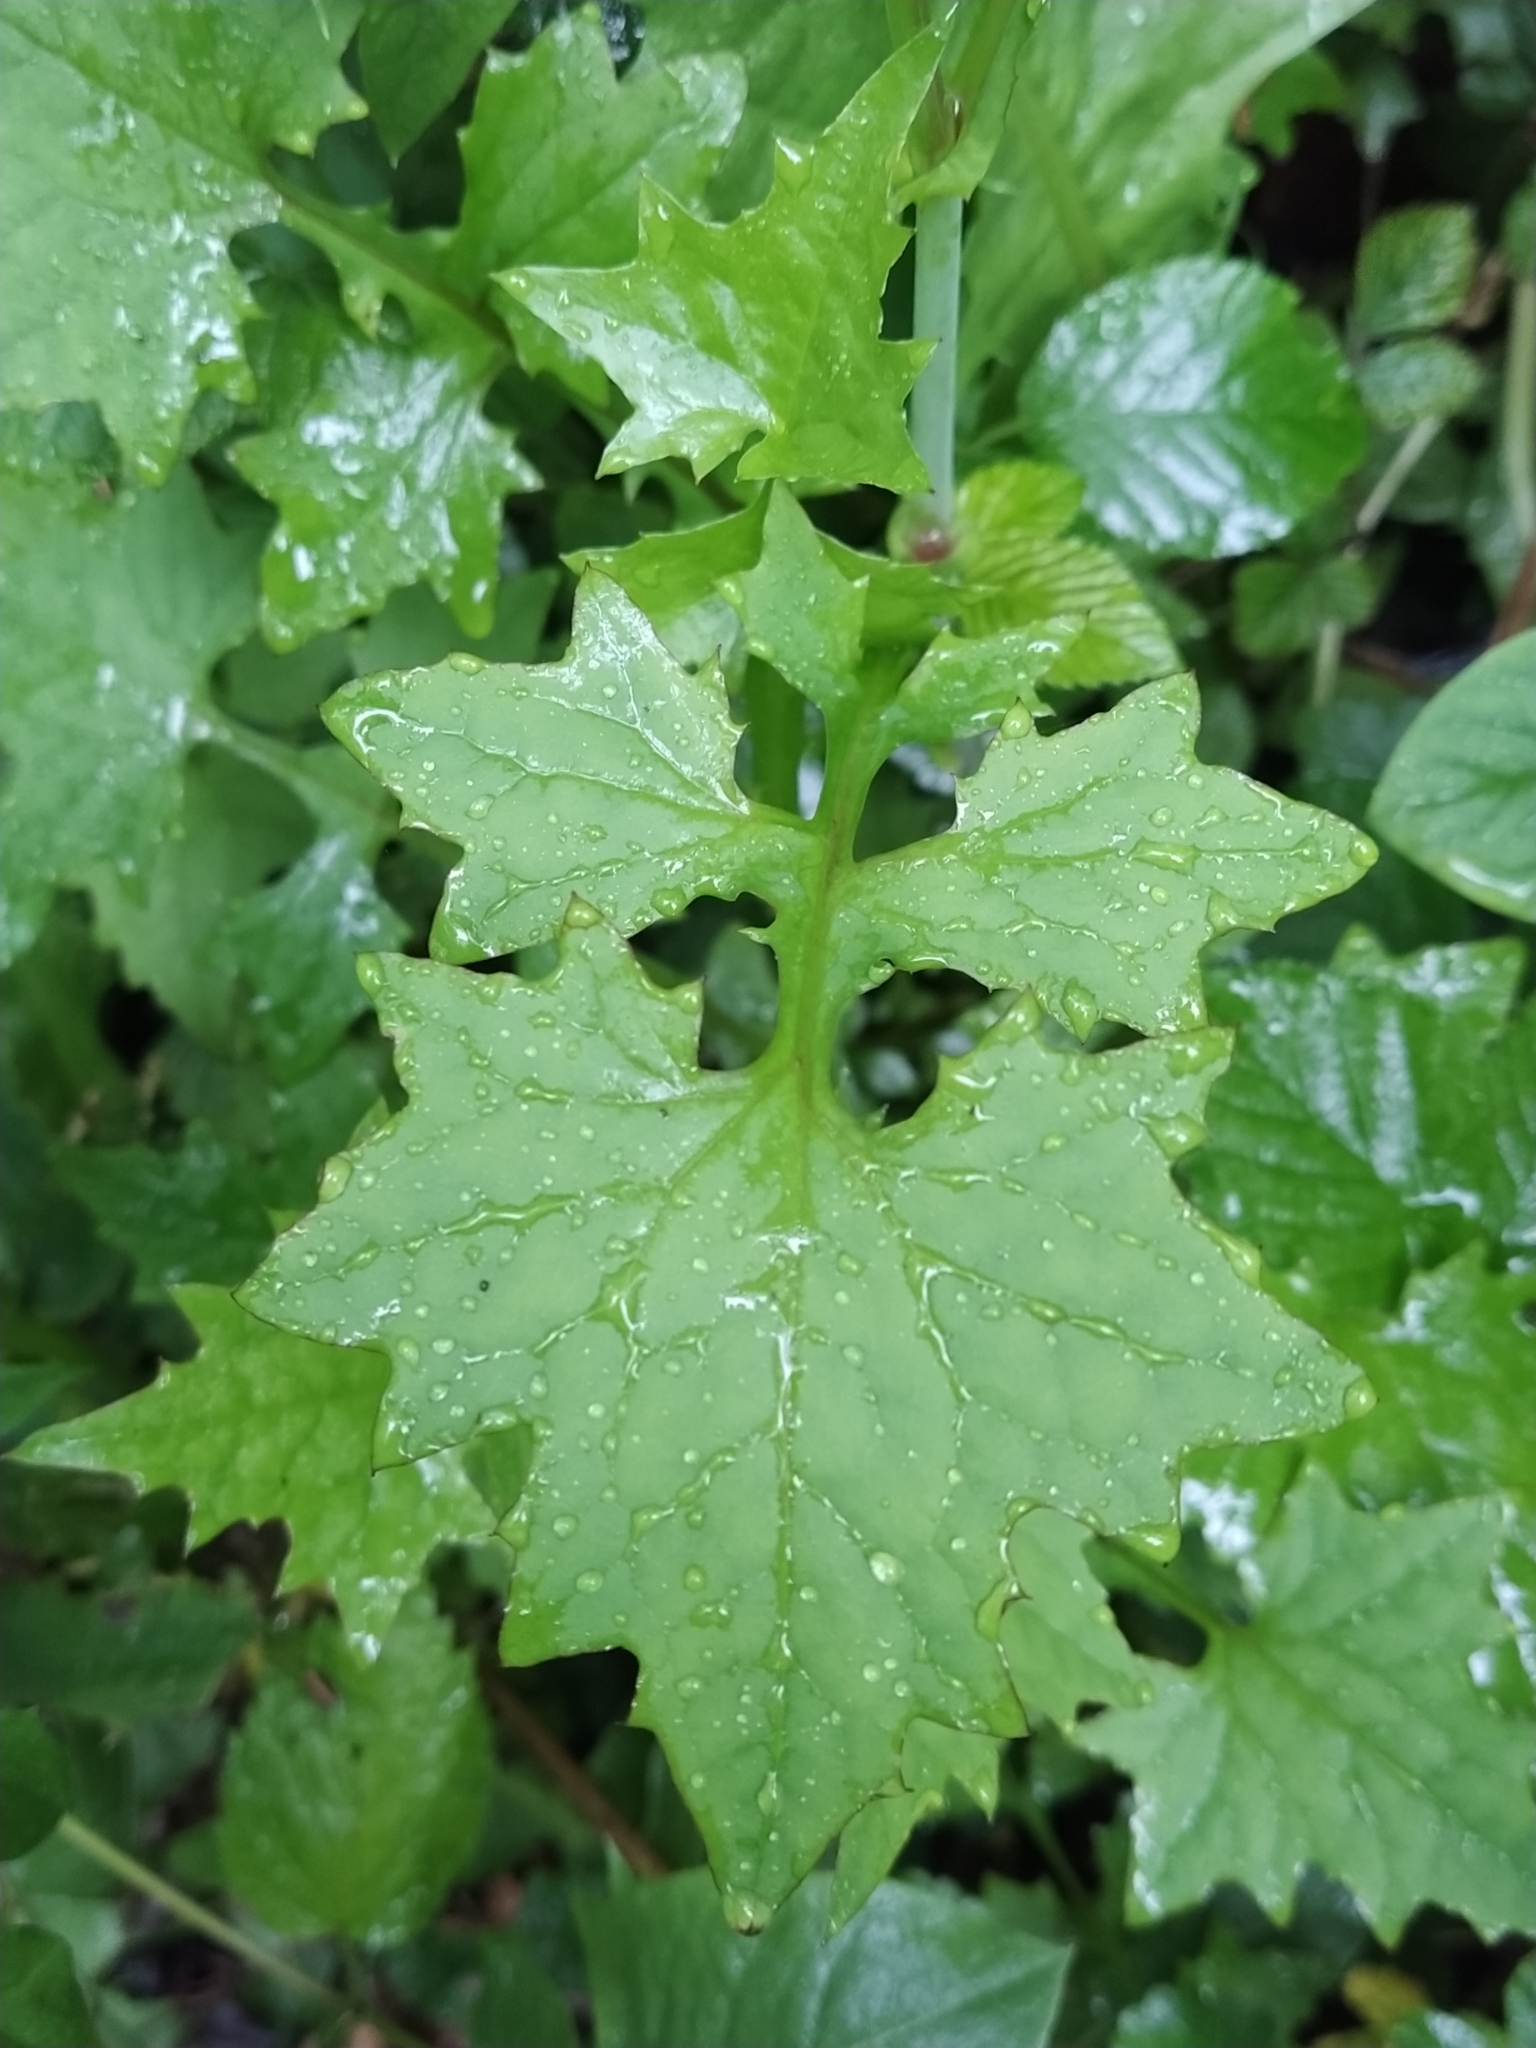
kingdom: Plantae
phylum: Tracheophyta
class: Magnoliopsida
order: Asterales
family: Asteraceae
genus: Mycelis
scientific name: Mycelis muralis
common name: Wall lettuce
